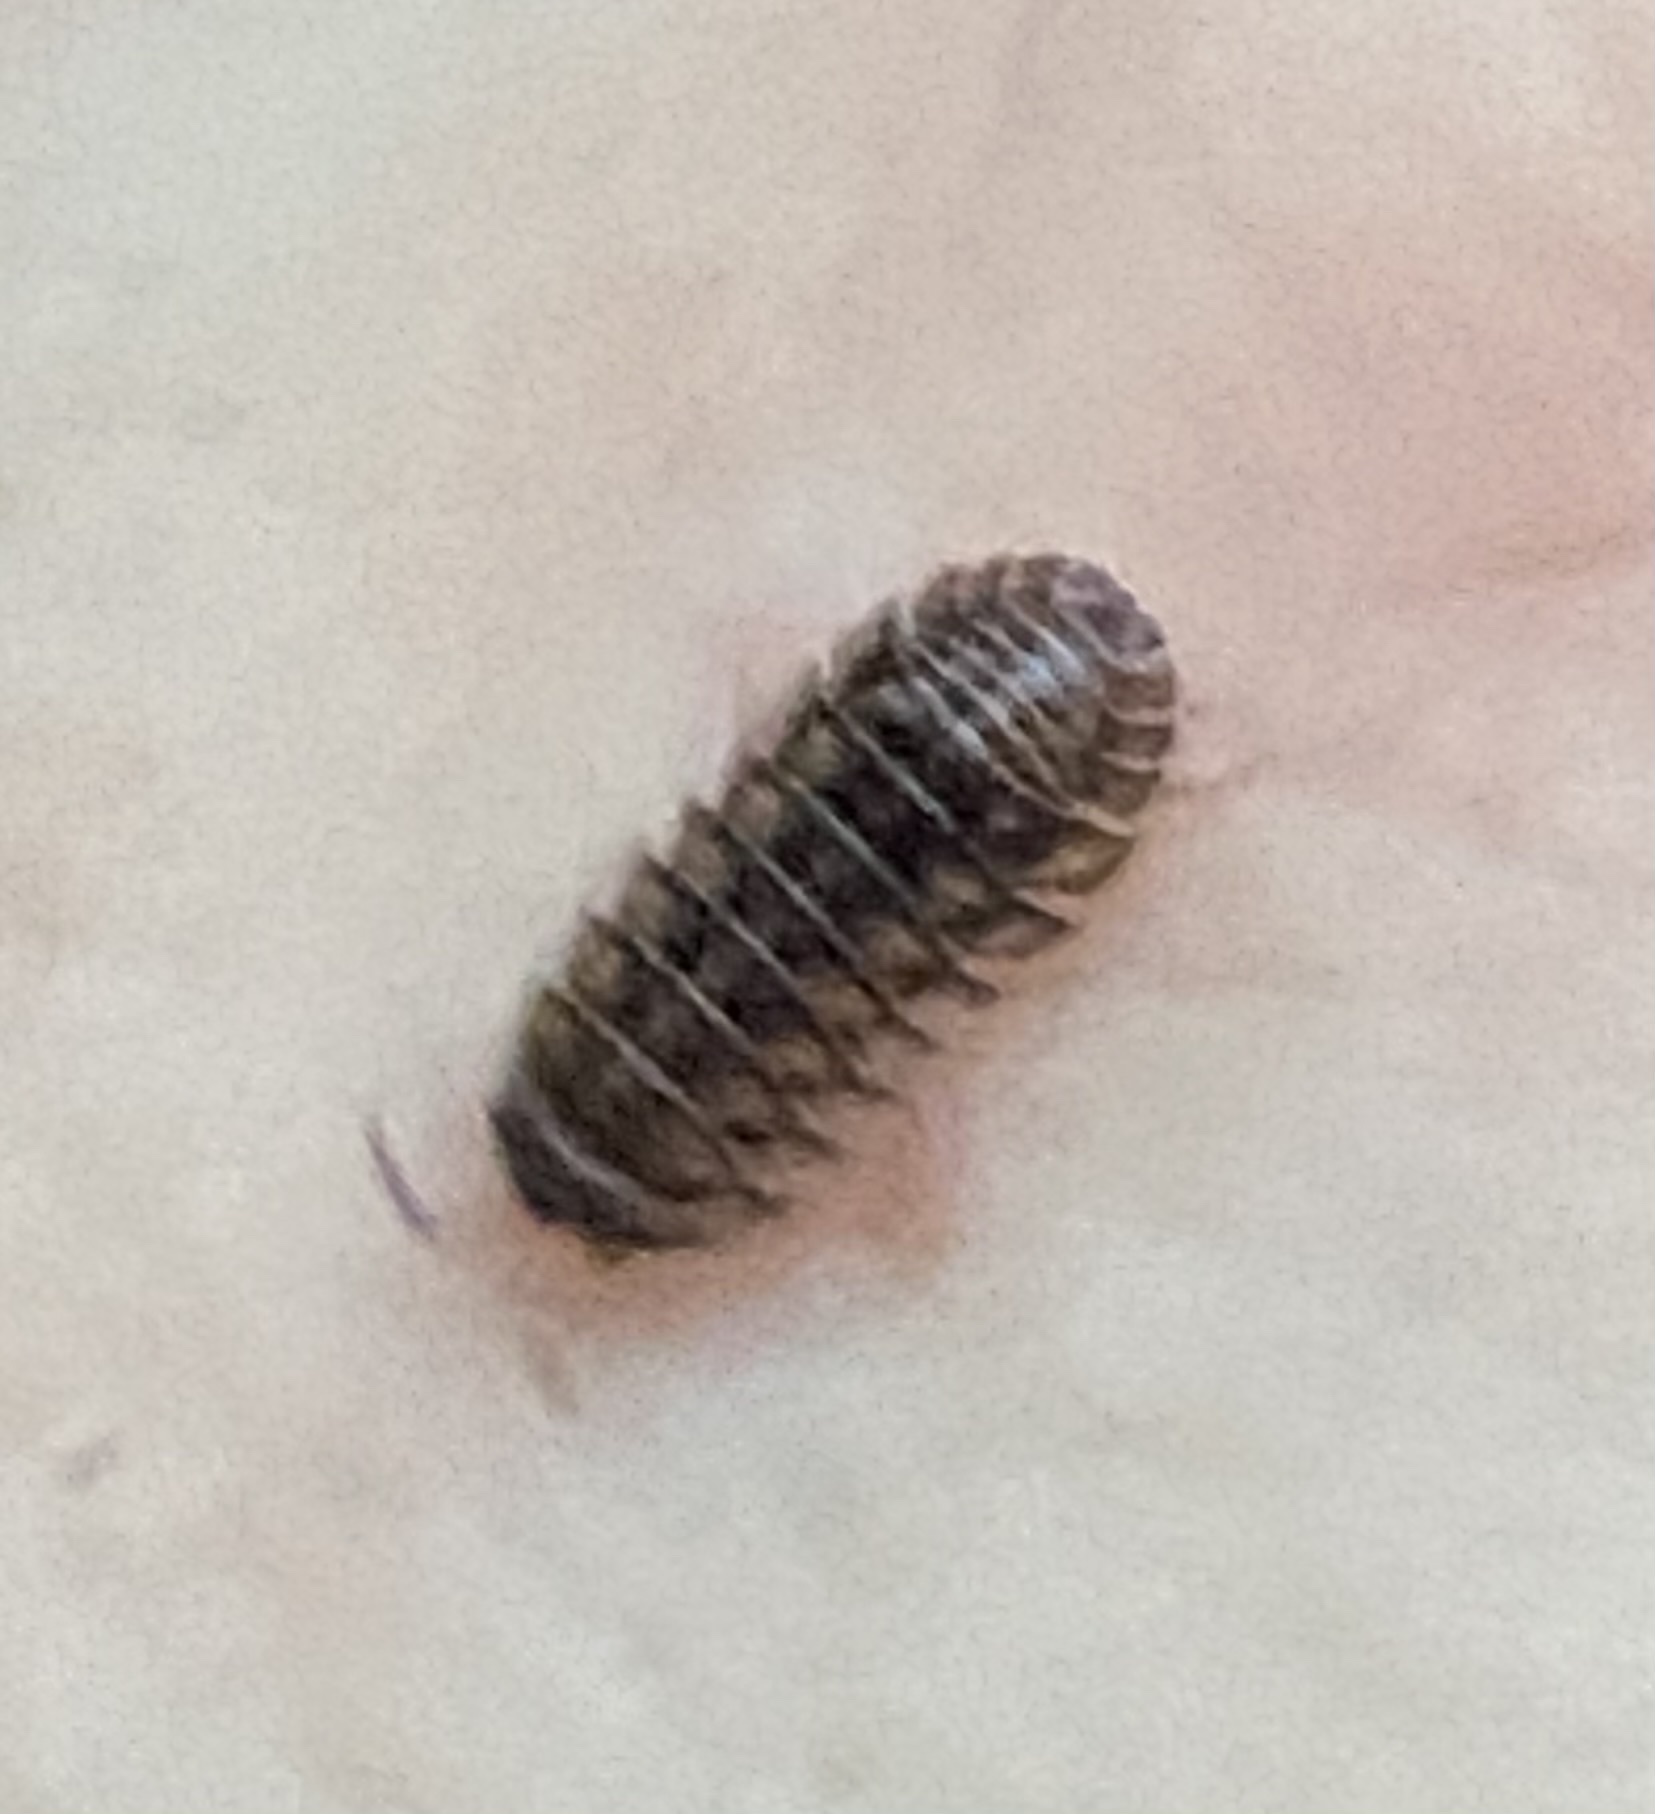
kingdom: Animalia
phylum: Arthropoda
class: Malacostraca
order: Isopoda
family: Armadillidiidae
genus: Armadillidium
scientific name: Armadillidium nasatum
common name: Isopod
